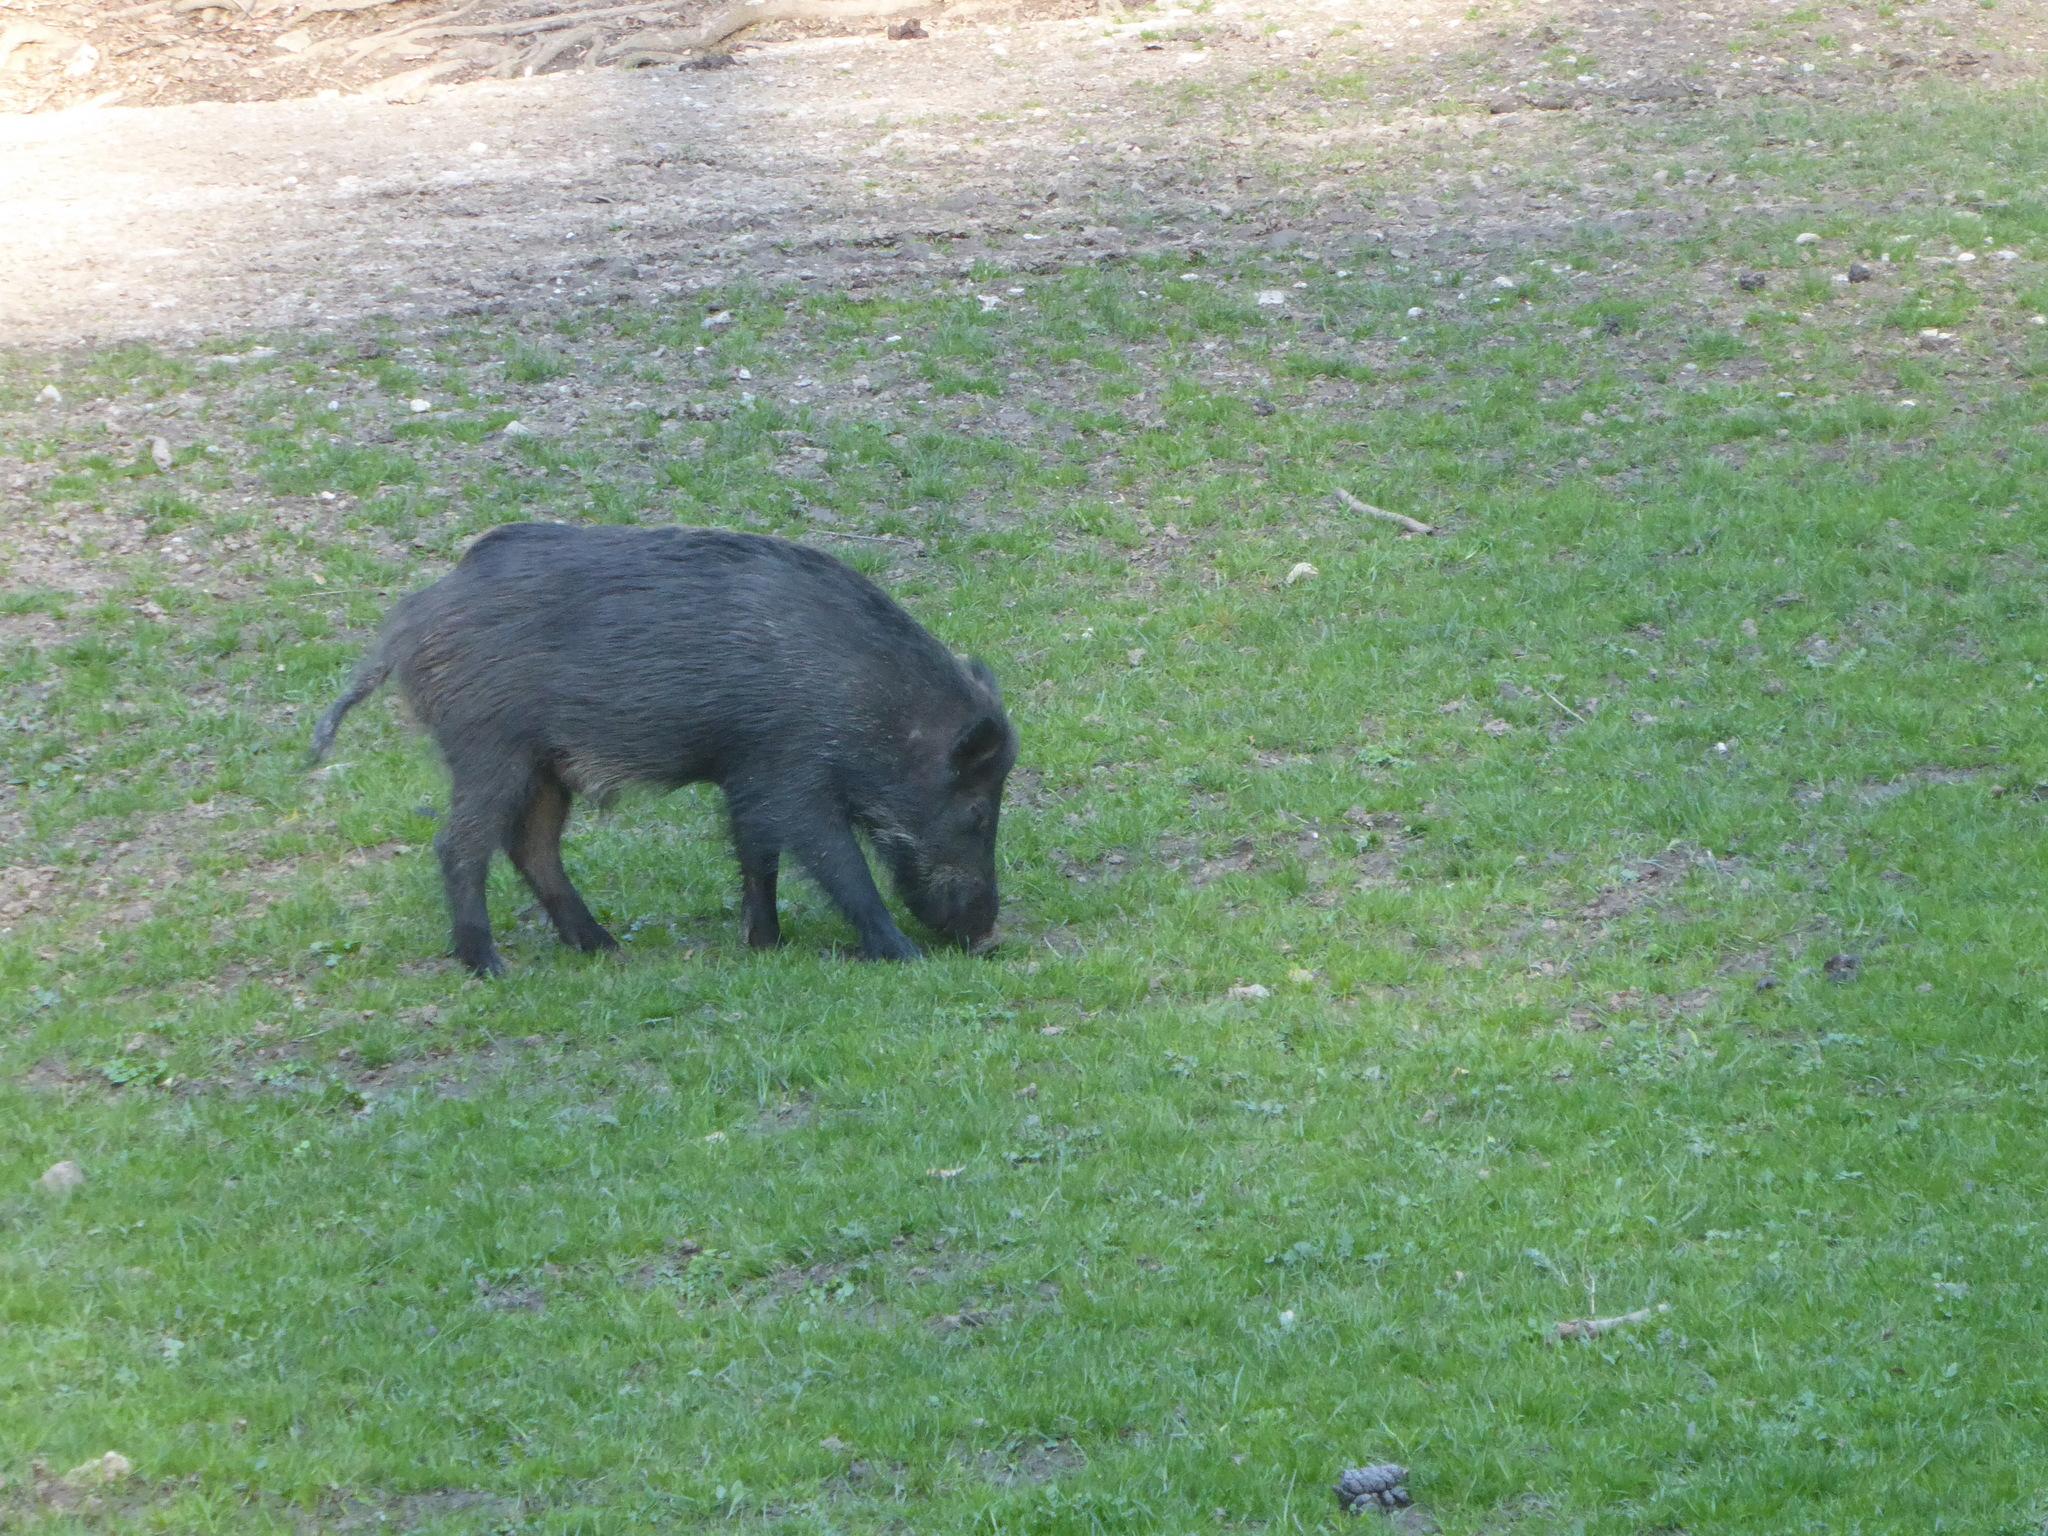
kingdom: Animalia
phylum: Chordata
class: Mammalia
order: Artiodactyla
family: Suidae
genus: Sus
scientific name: Sus scrofa
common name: Wild boar
